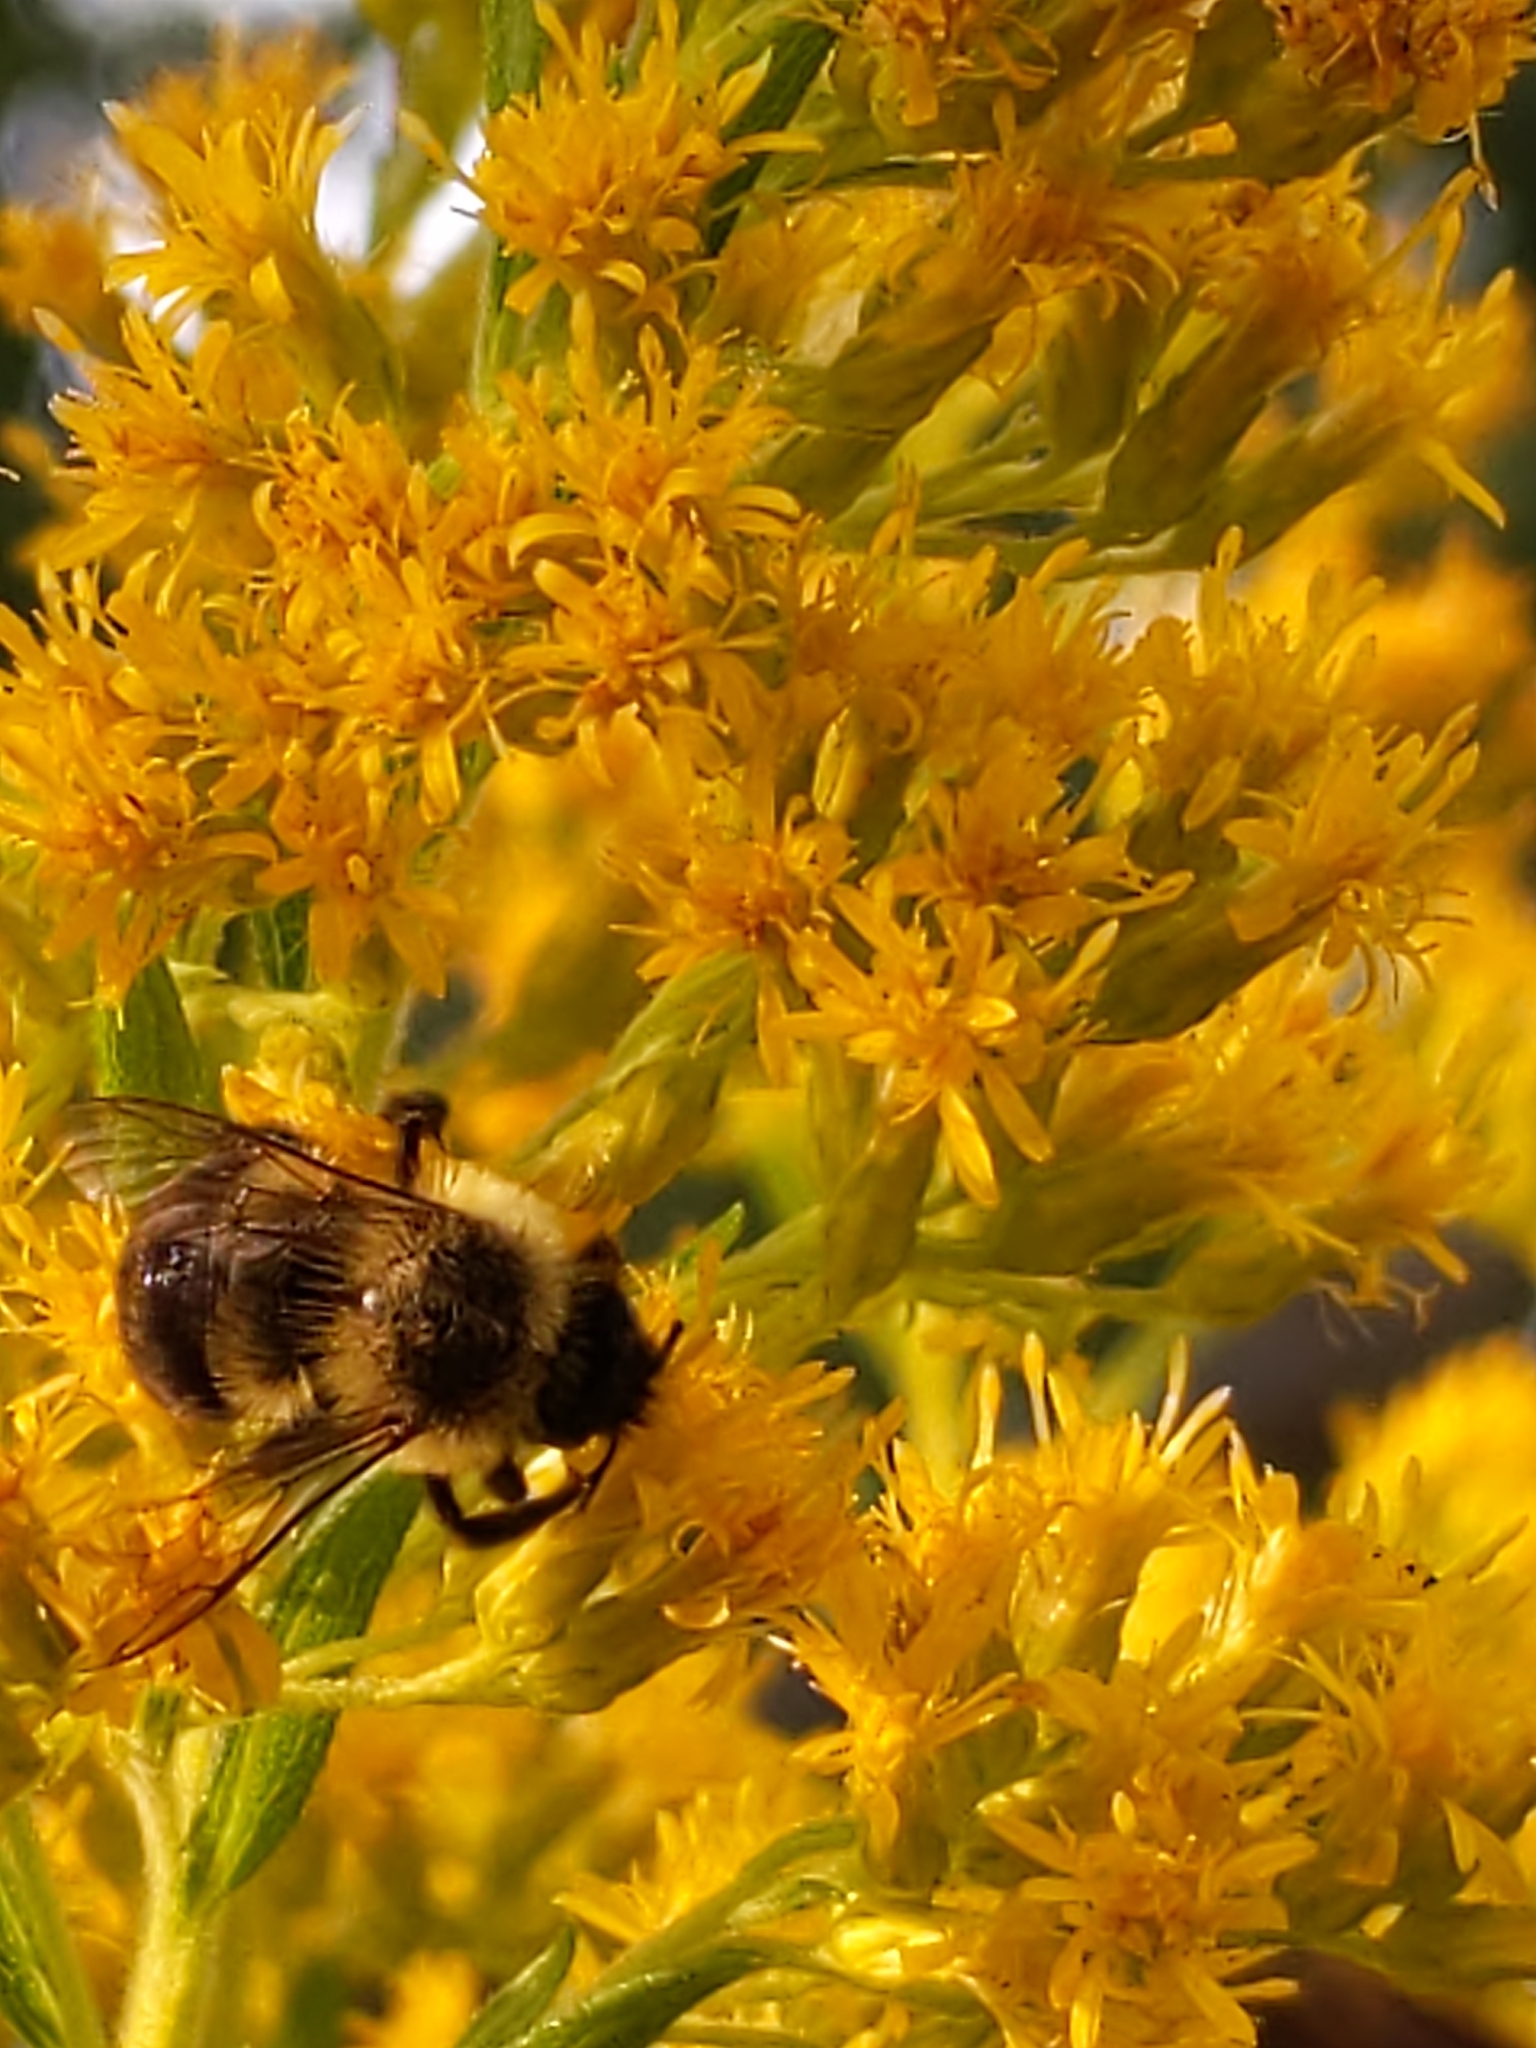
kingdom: Animalia
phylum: Arthropoda
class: Insecta
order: Hymenoptera
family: Apidae
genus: Bombus
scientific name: Bombus impatiens
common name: Common eastern bumble bee
